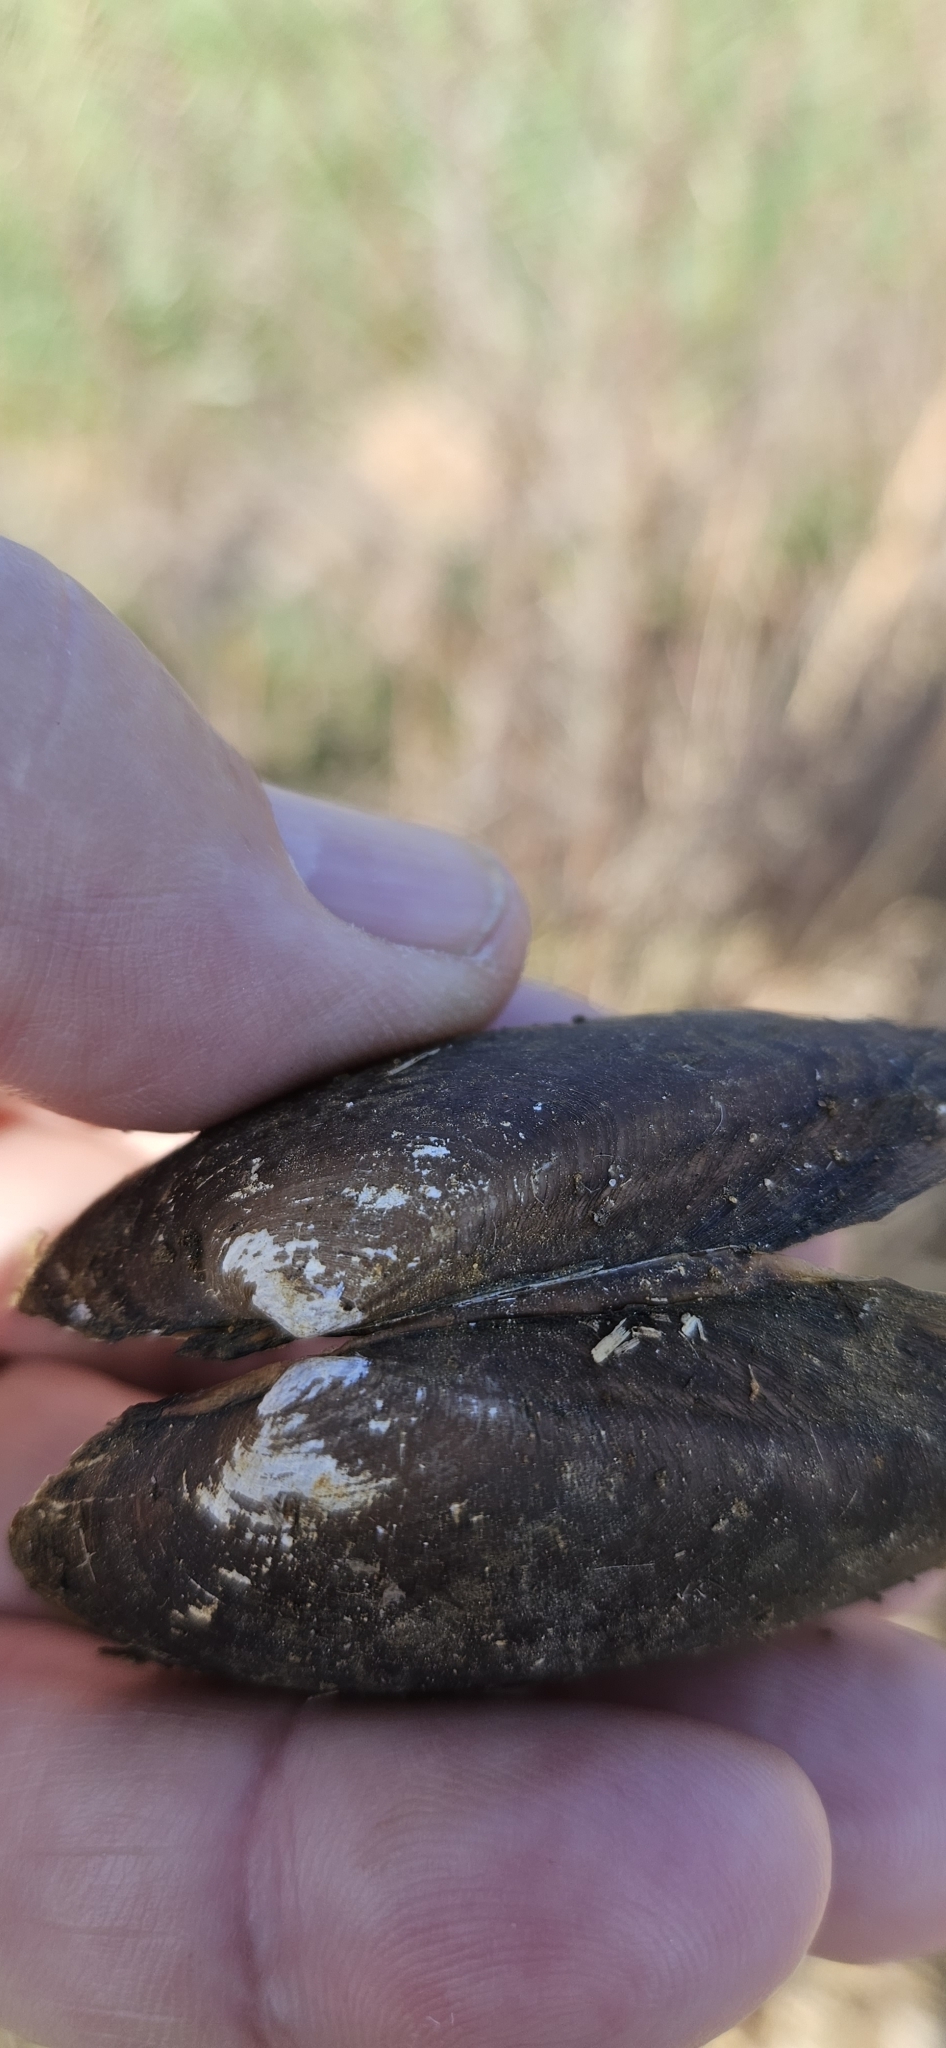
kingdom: Animalia
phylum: Mollusca
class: Bivalvia
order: Unionida
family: Unionidae
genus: Uniomerus
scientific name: Uniomerus tetralasmus
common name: Pondhorn
